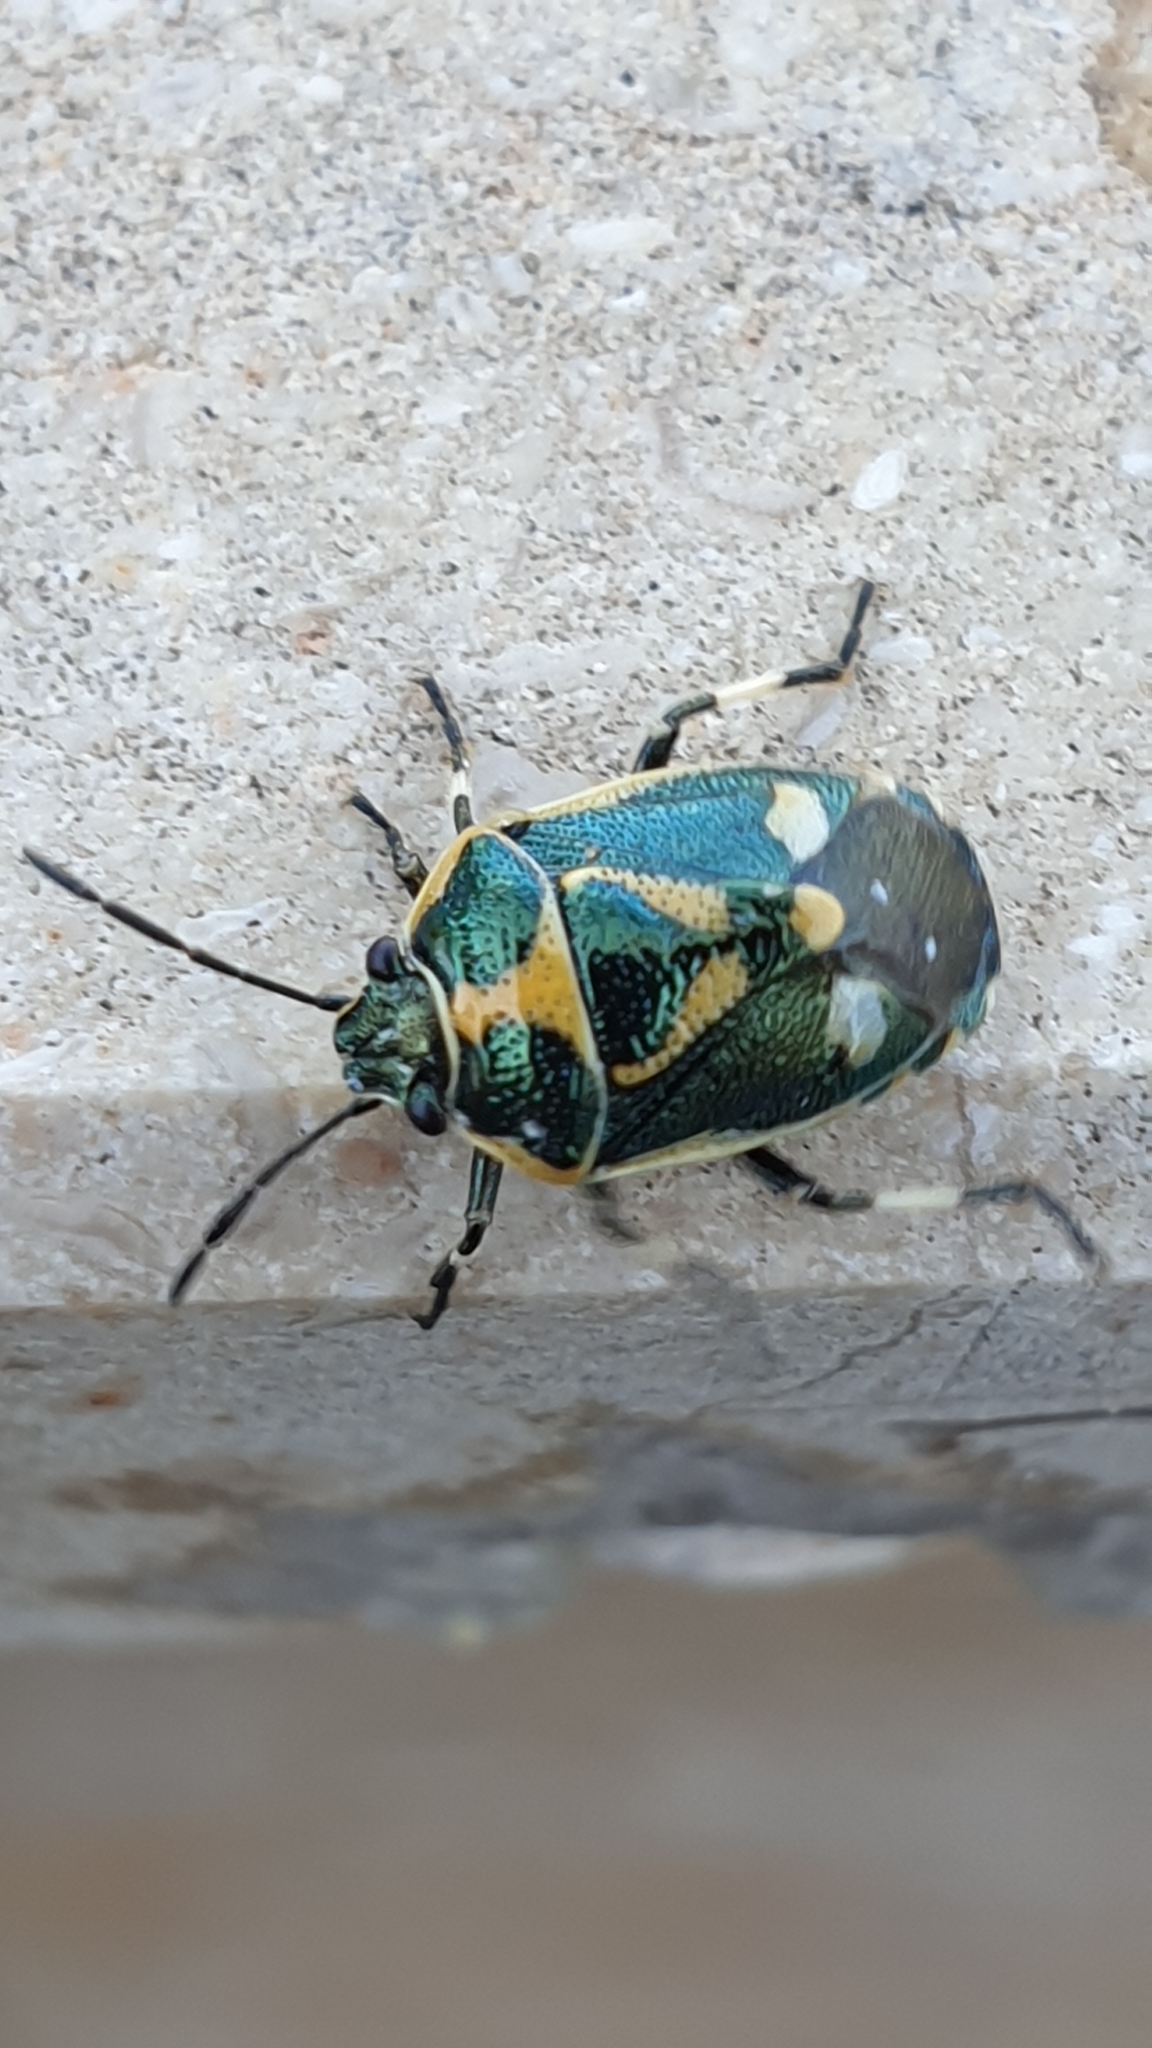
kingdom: Animalia
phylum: Arthropoda
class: Insecta
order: Hemiptera
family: Pentatomidae
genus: Eurydema
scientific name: Eurydema oleracea
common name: Cabbage bug
